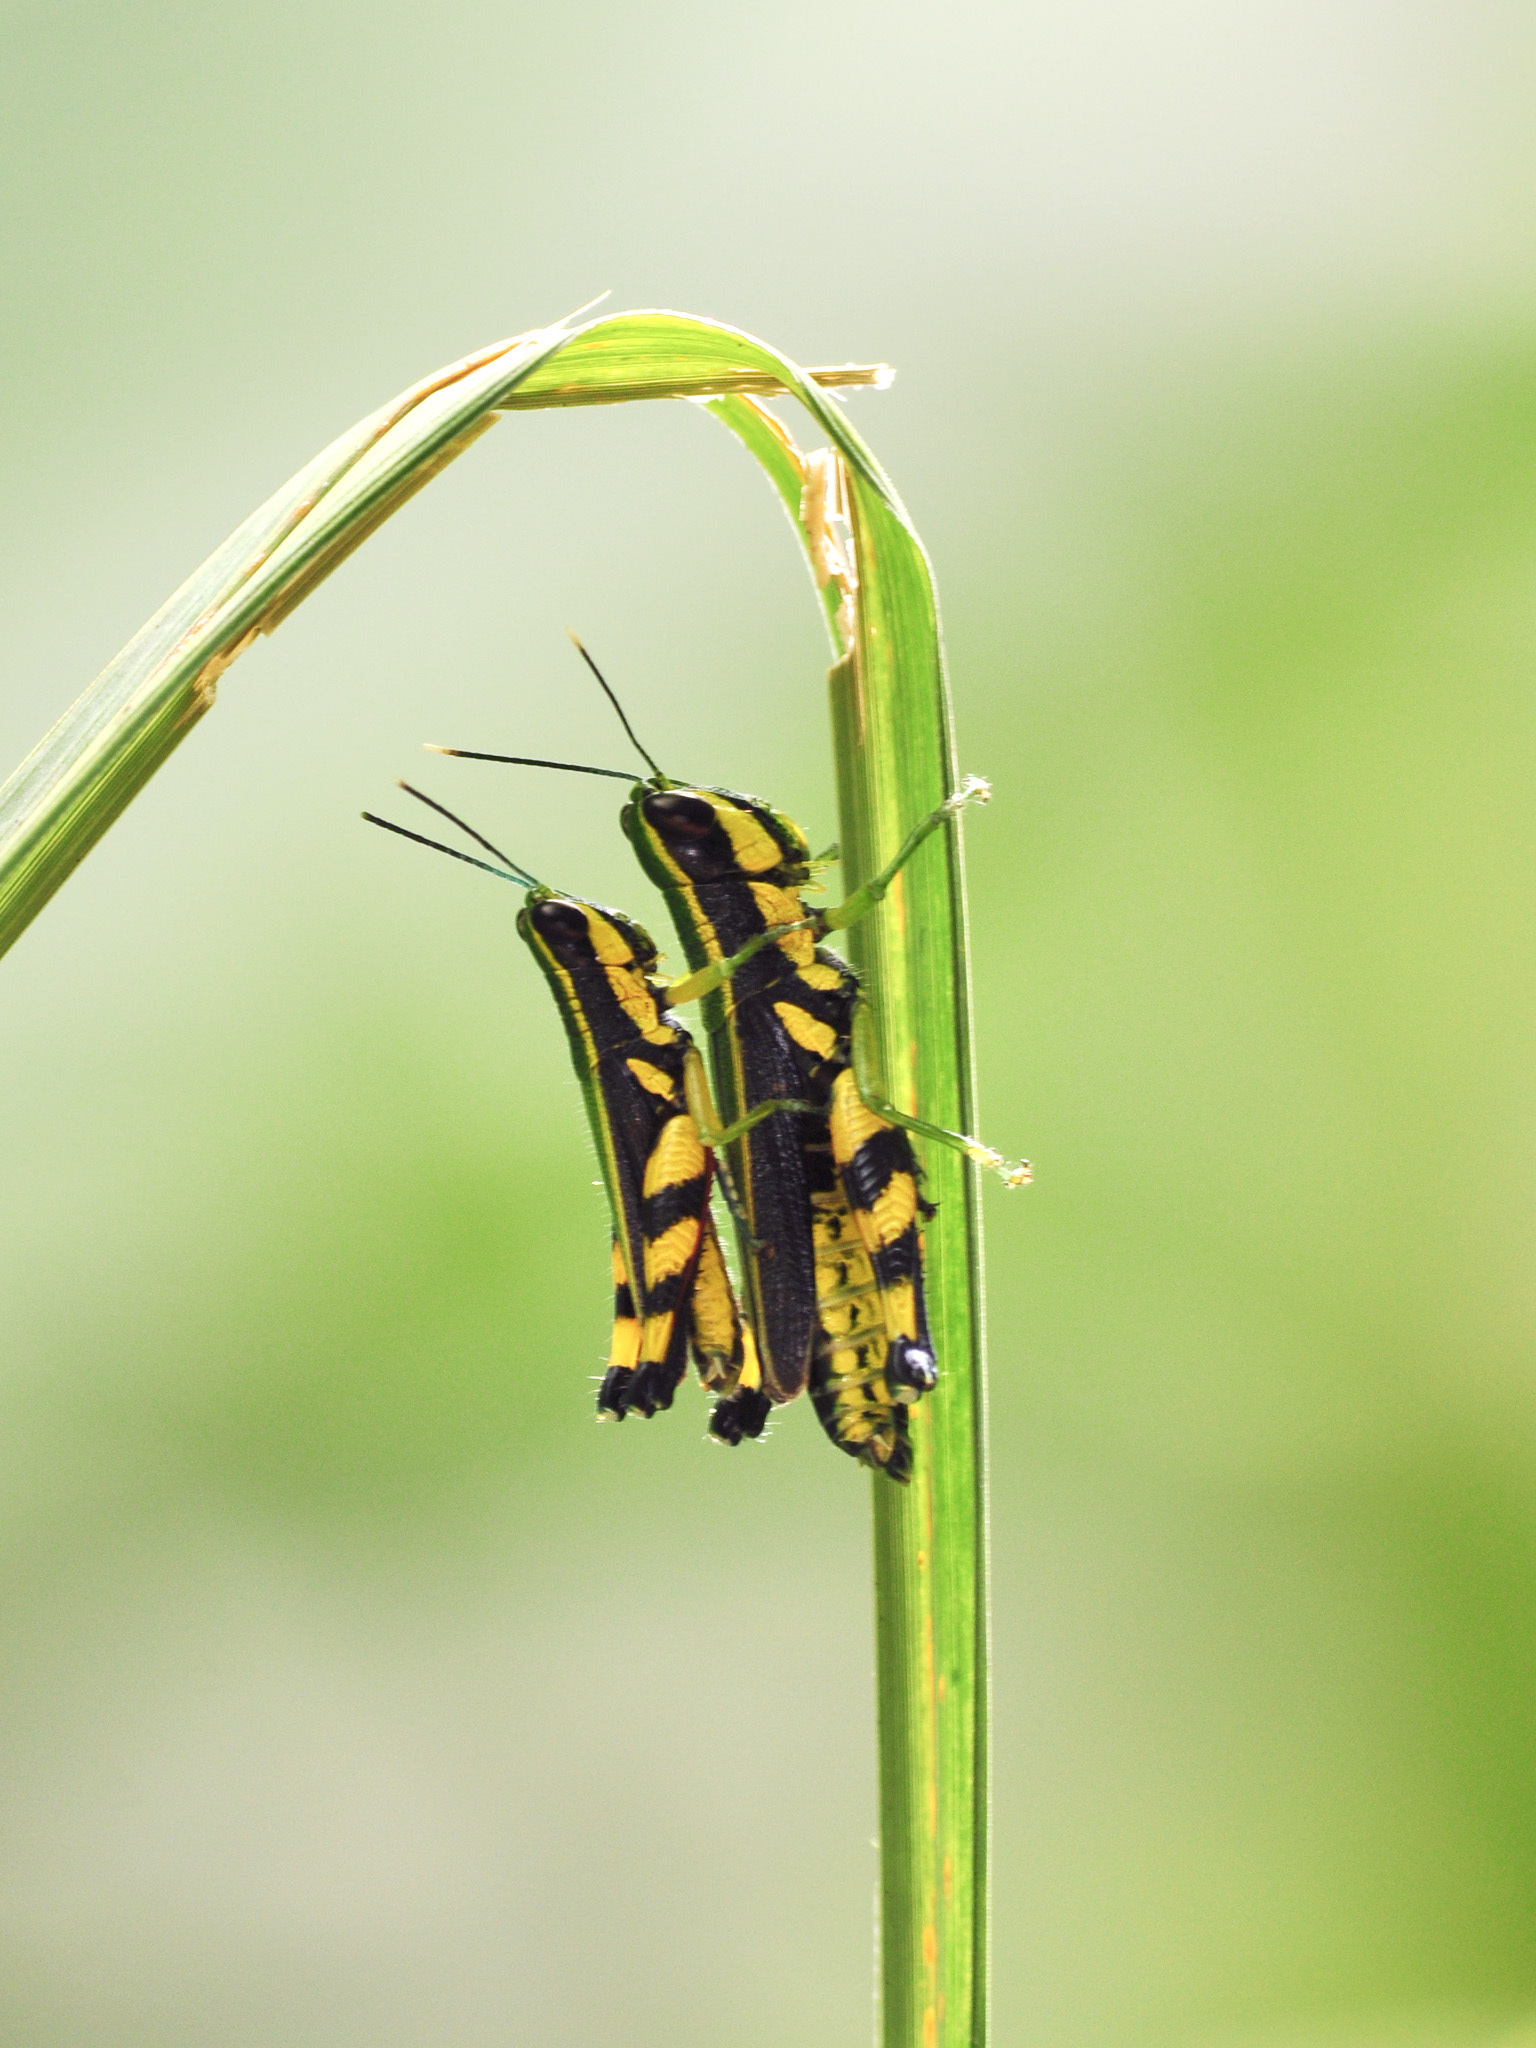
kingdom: Animalia
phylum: Arthropoda
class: Insecta
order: Orthoptera
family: Acrididae
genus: Tauchira
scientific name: Tauchira polychroa
